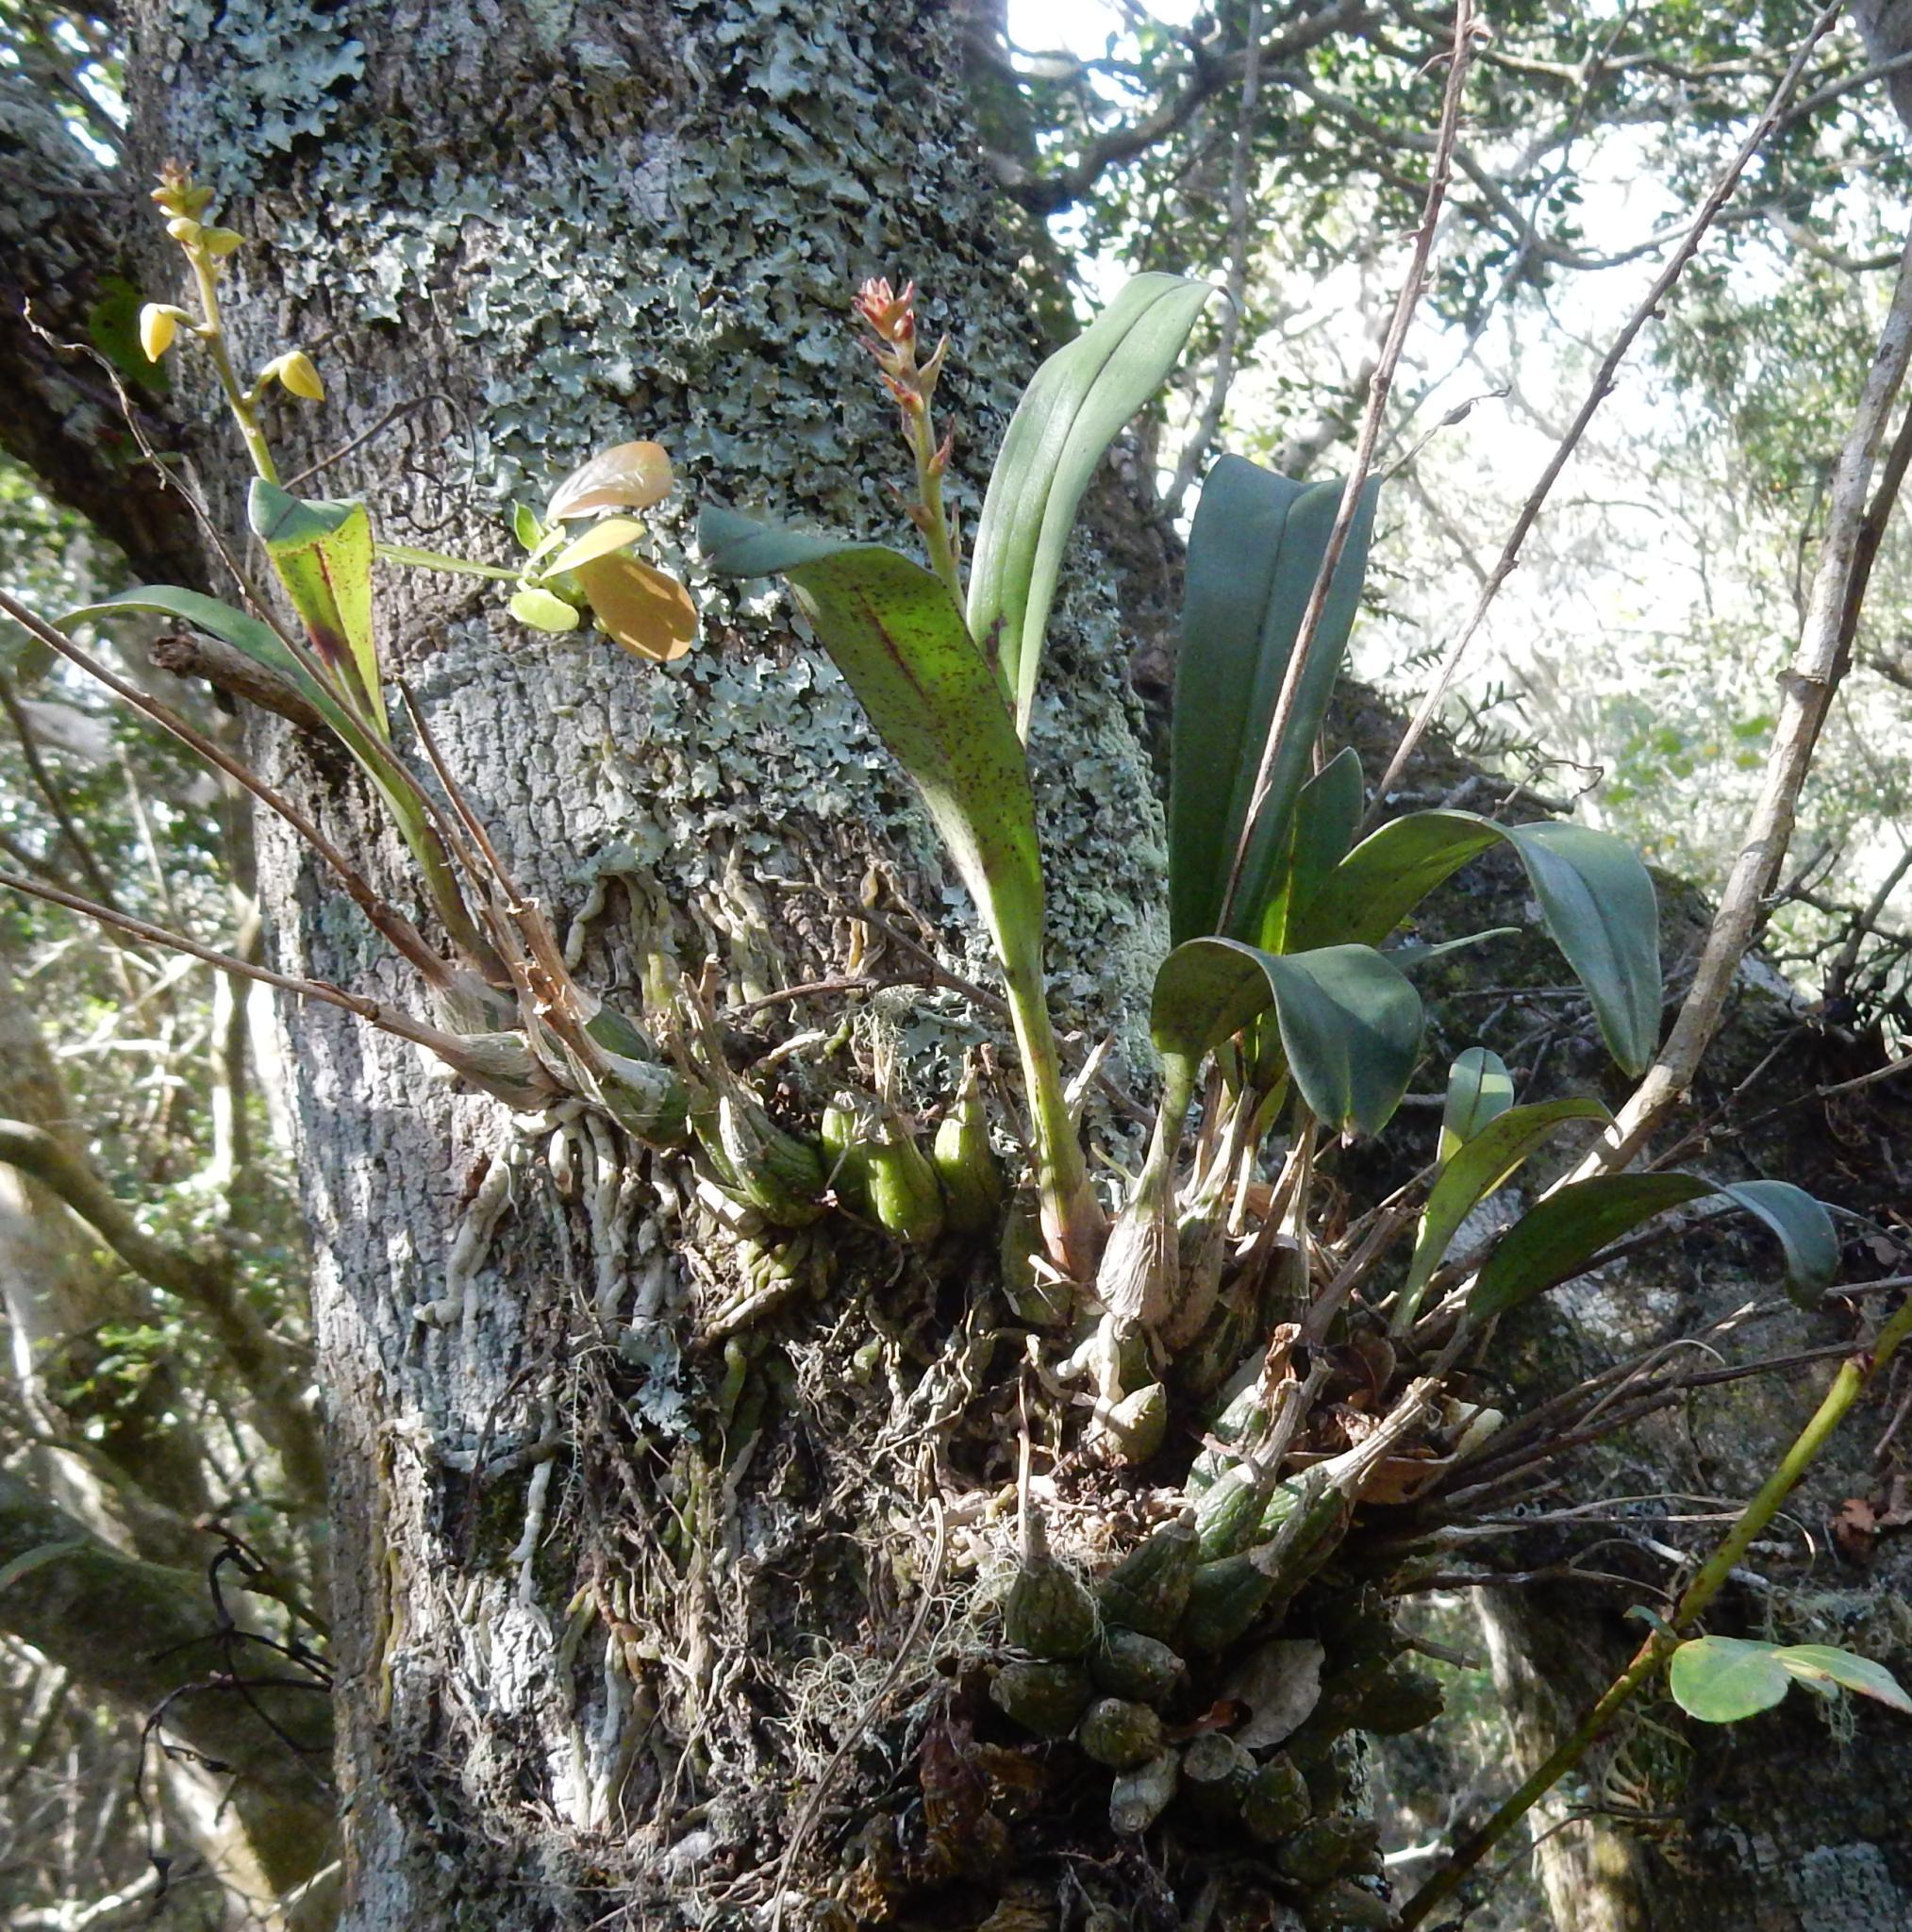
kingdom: Plantae
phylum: Tracheophyta
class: Liliopsida
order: Asparagales
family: Orchidaceae
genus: Polystachya
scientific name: Polystachya pubescens
